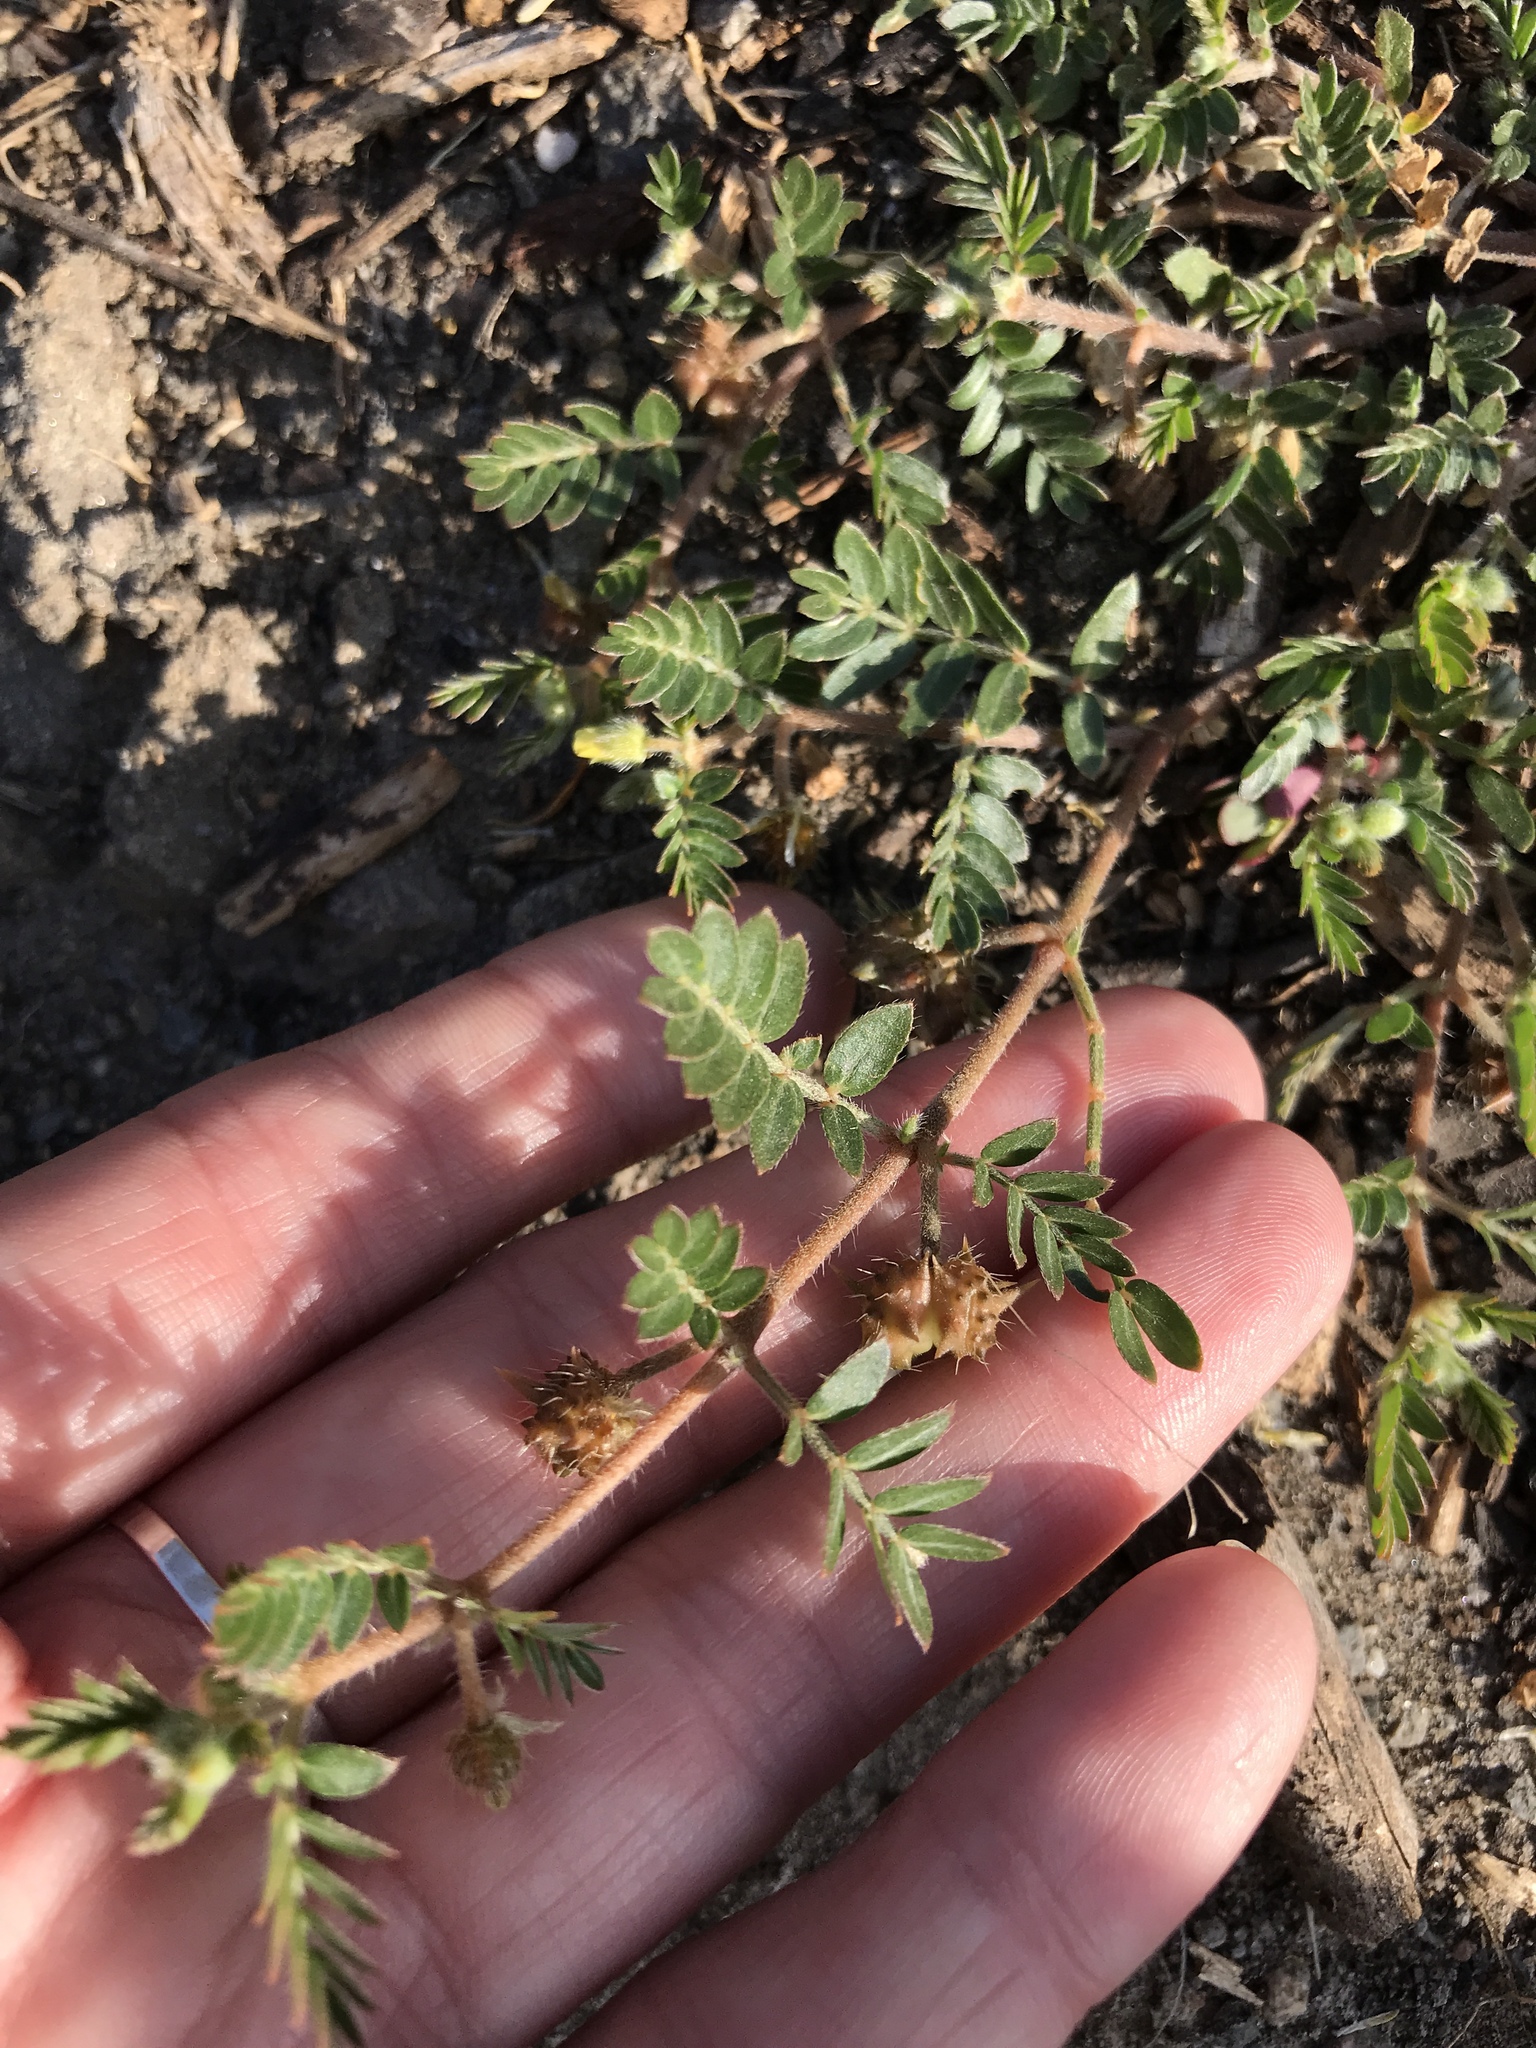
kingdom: Plantae
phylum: Tracheophyta
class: Magnoliopsida
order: Zygophyllales
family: Zygophyllaceae
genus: Tribulus
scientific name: Tribulus terrestris
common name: Puncturevine
